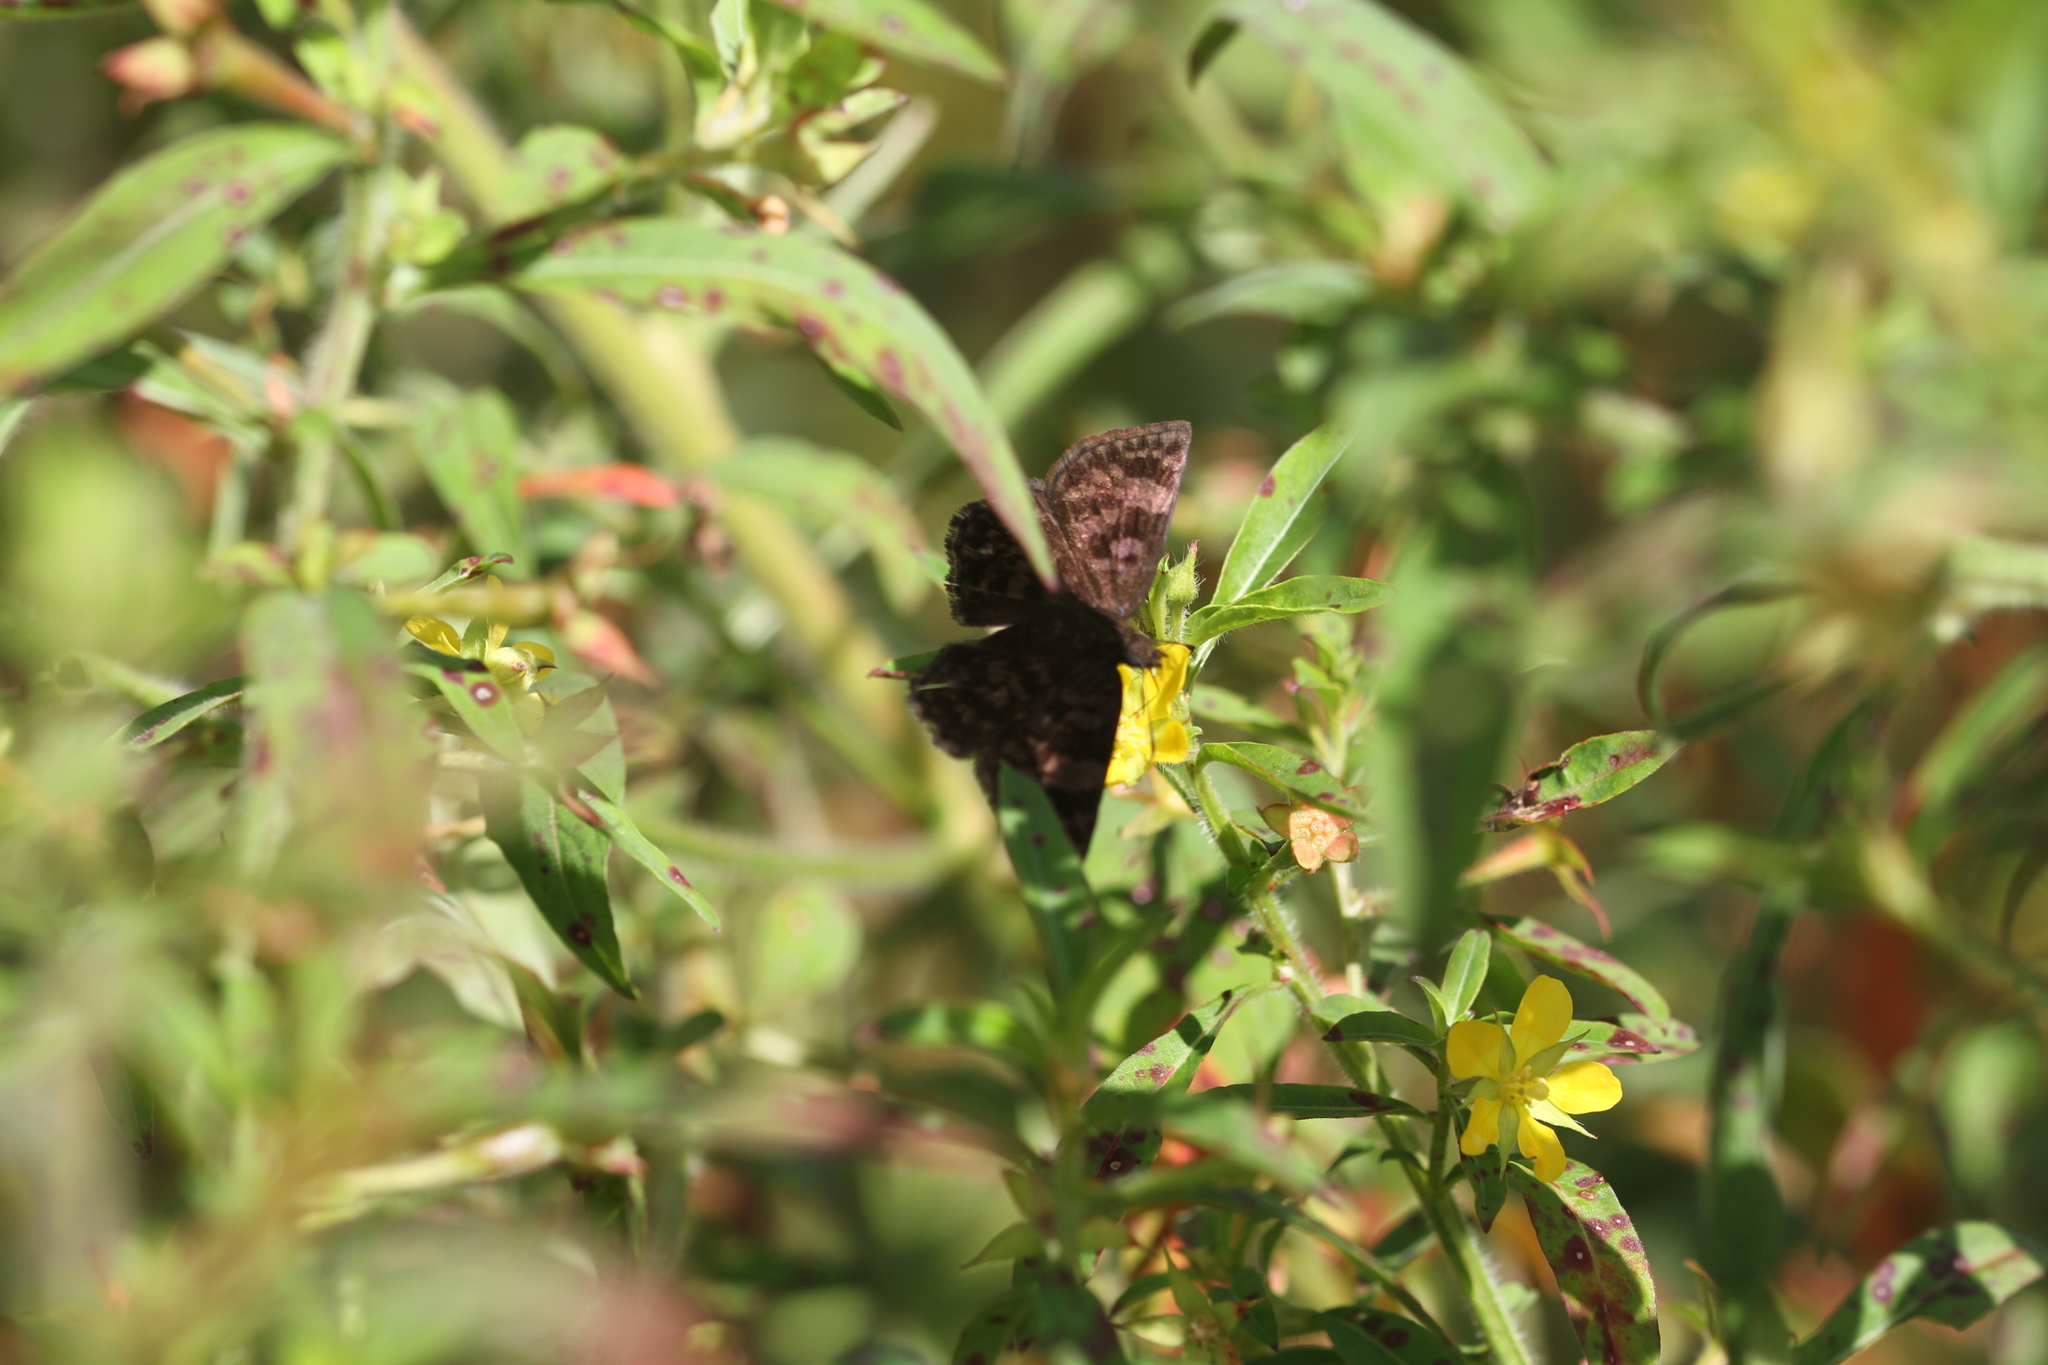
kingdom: Animalia
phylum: Arthropoda
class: Insecta
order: Lepidoptera
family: Hesperiidae
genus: Viola
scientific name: Viola violella
